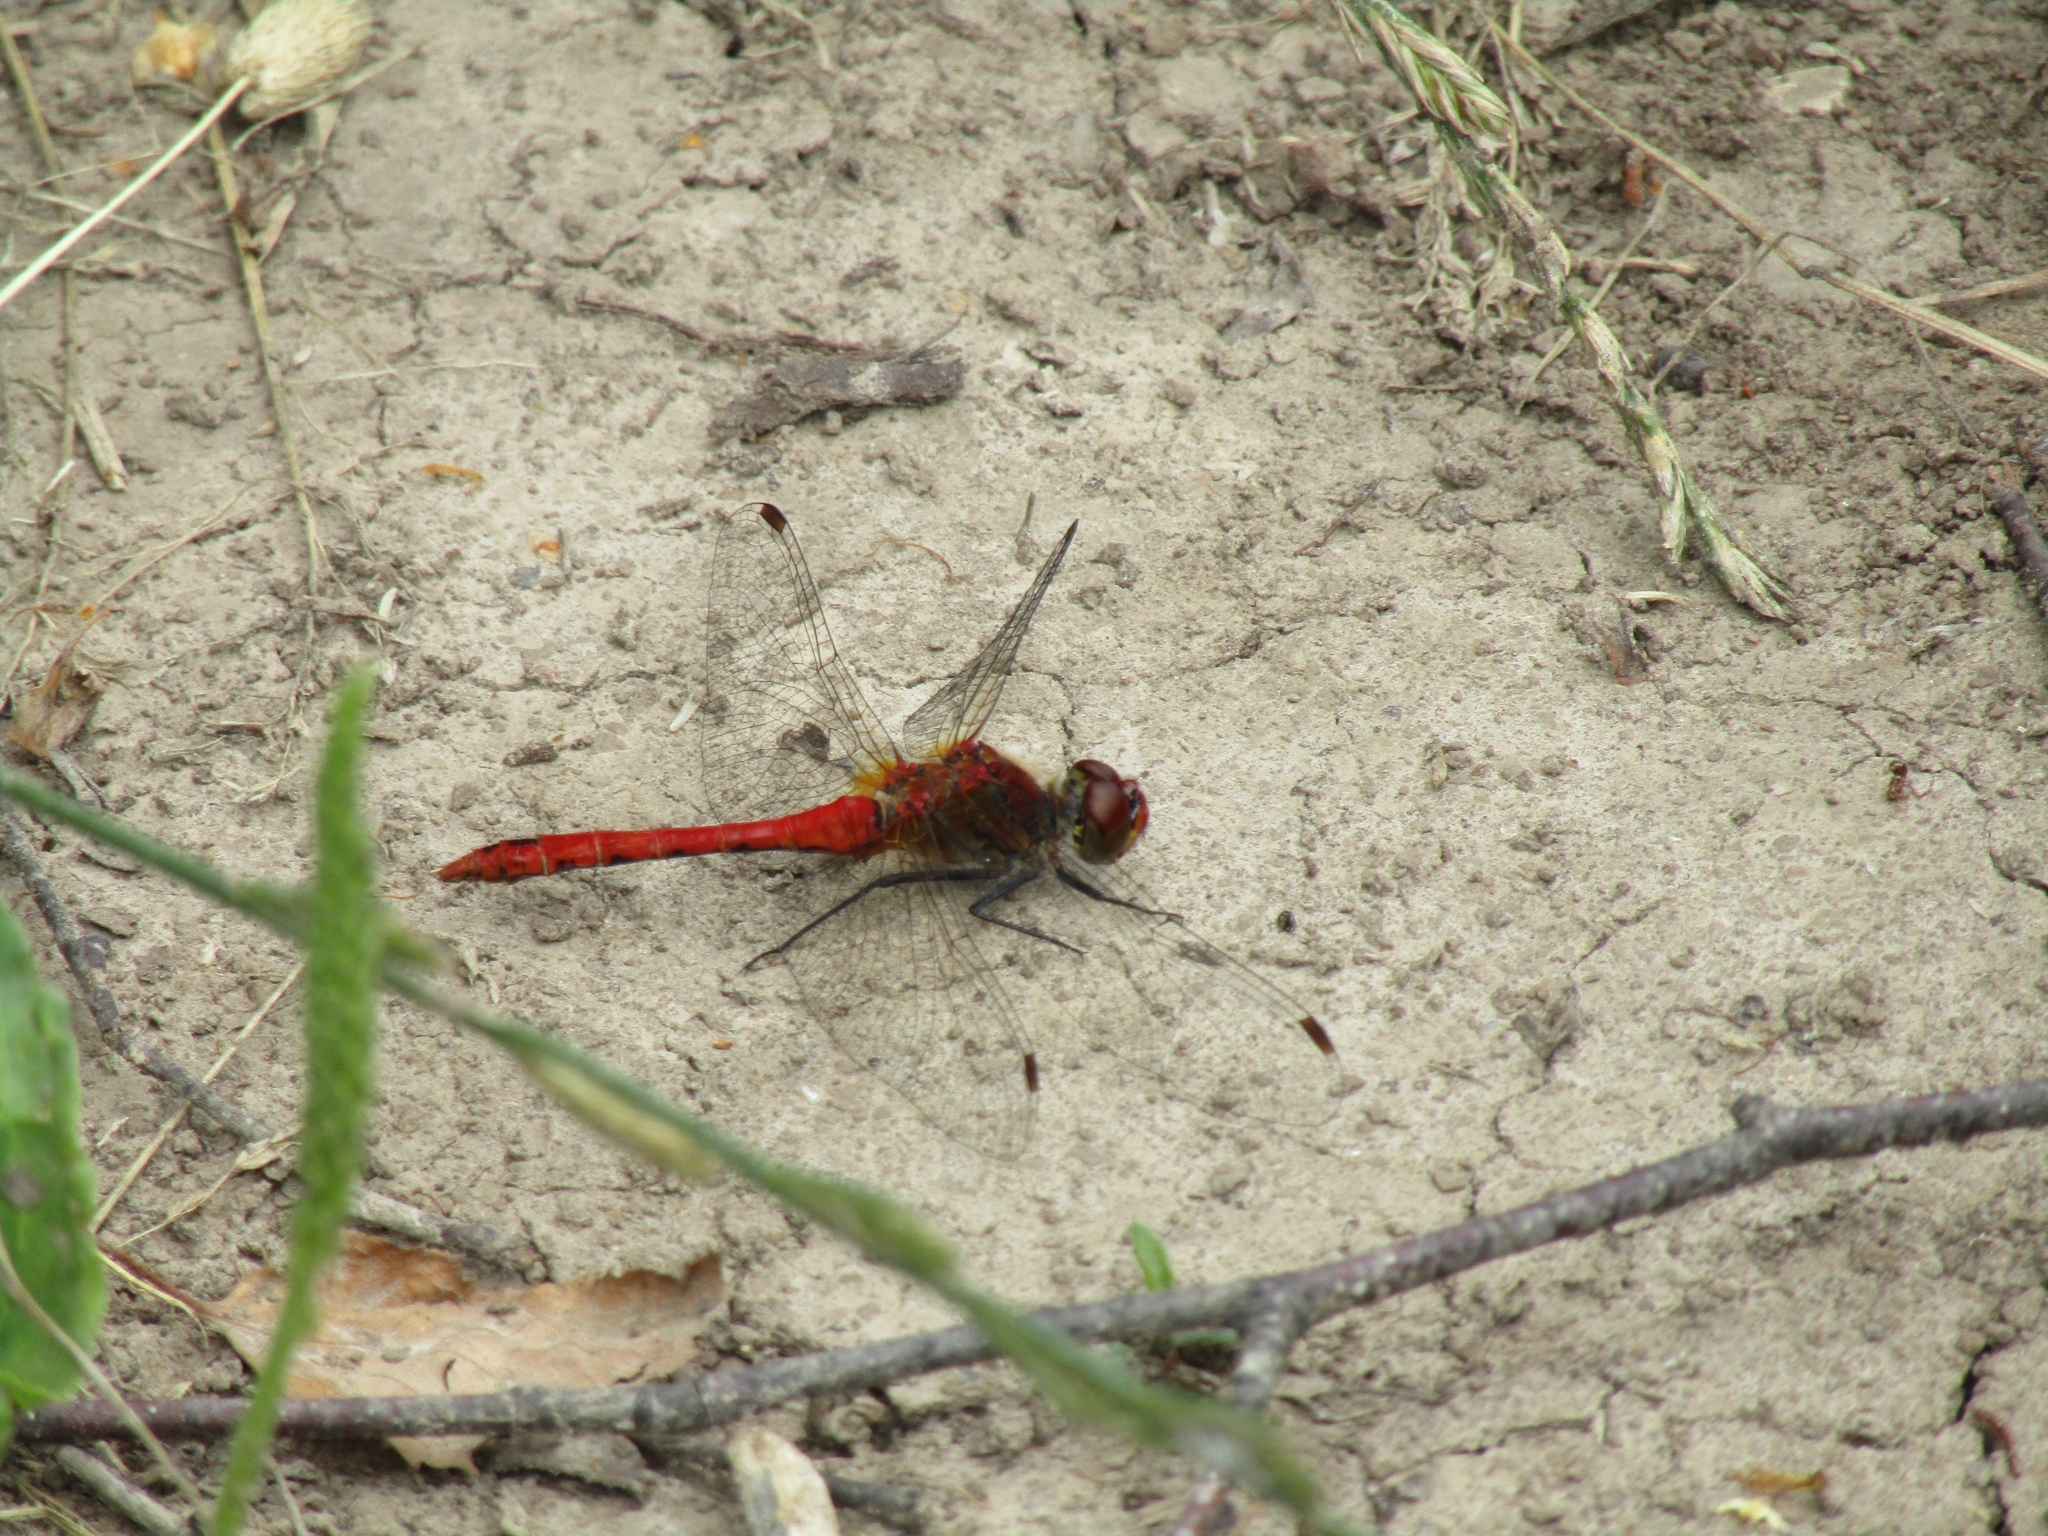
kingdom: Animalia
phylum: Arthropoda
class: Insecta
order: Odonata
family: Libellulidae
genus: Sympetrum
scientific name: Sympetrum sanguineum
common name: Ruddy darter
